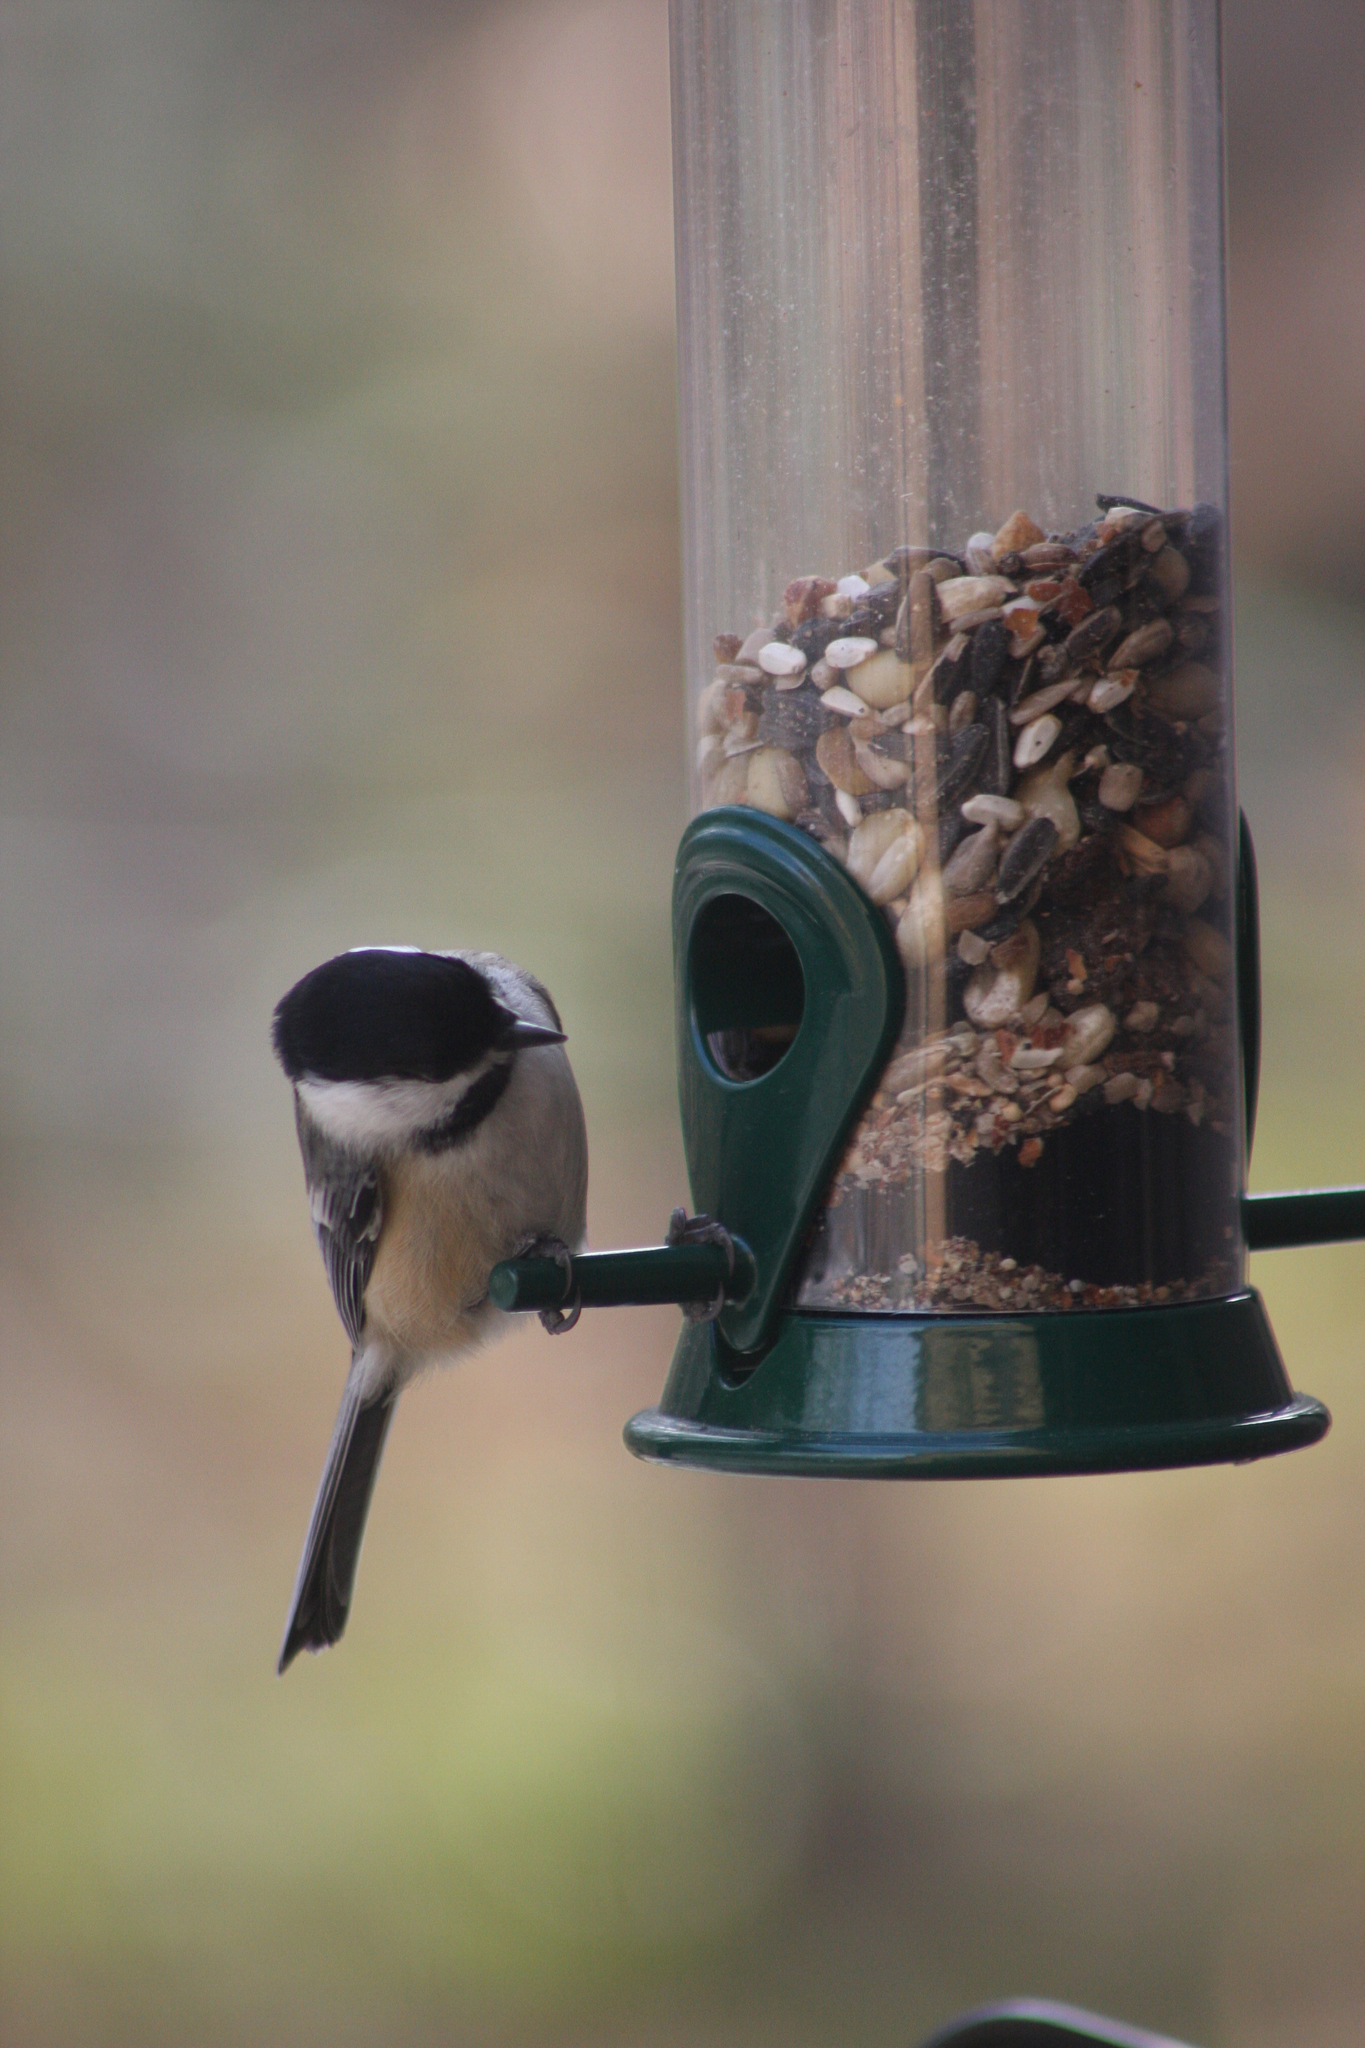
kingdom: Animalia
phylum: Chordata
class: Aves
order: Passeriformes
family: Paridae
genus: Poecile
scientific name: Poecile atricapillus
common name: Black-capped chickadee
